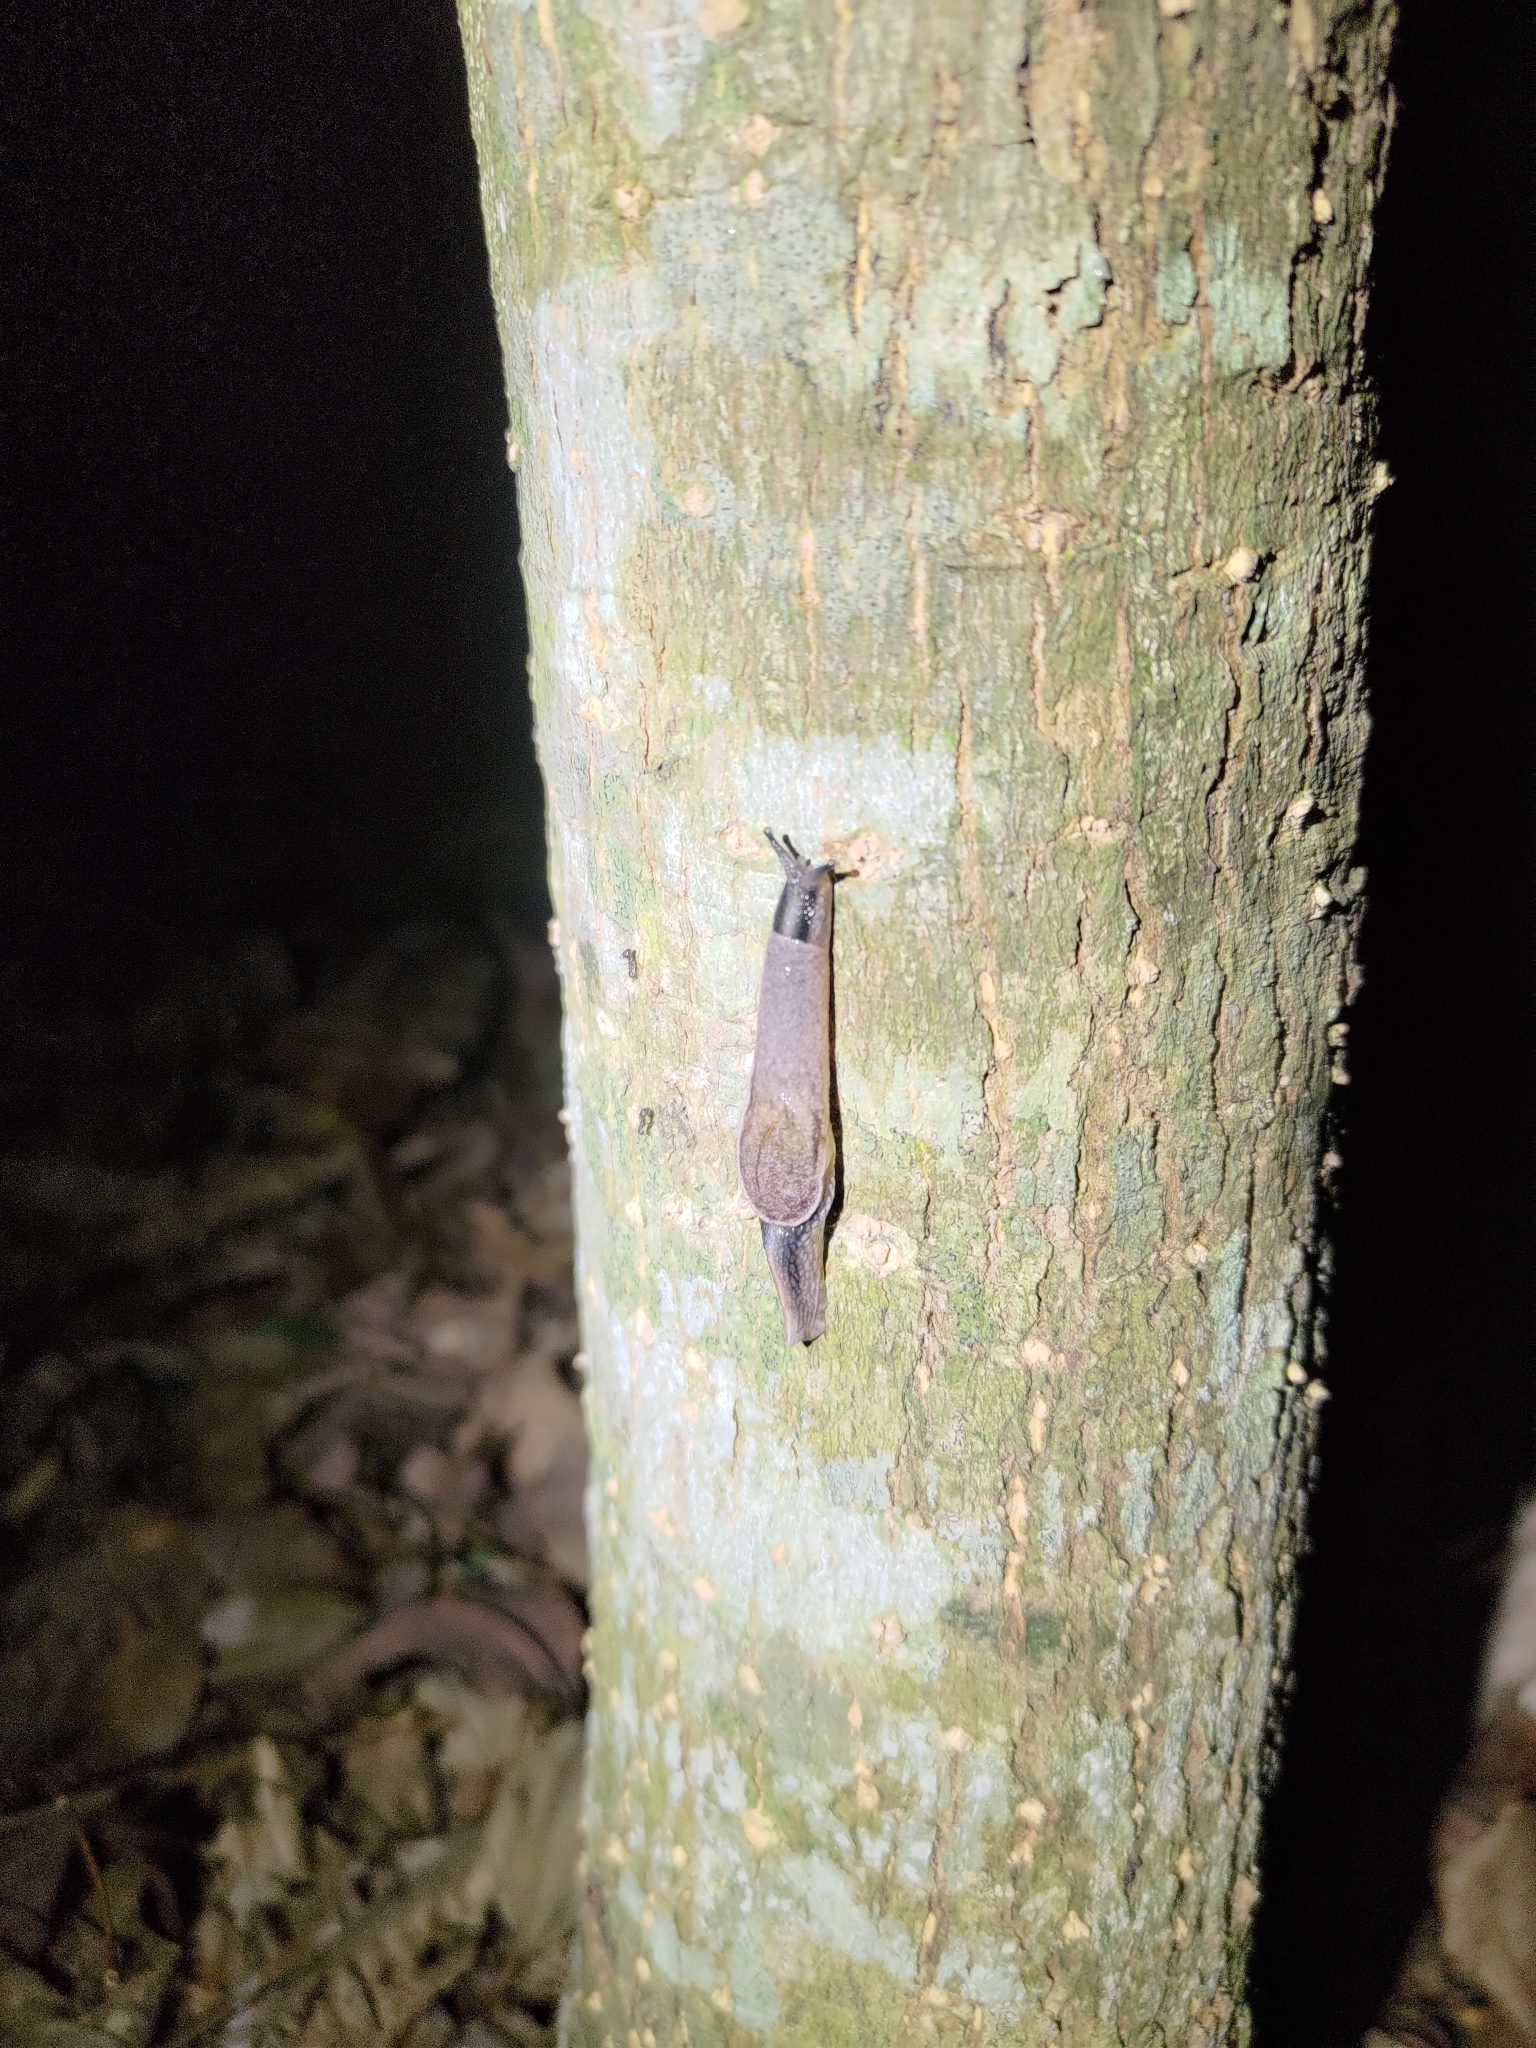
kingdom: Animalia
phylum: Mollusca
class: Gastropoda
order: Stylommatophora
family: Ariophantidae
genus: Parmarion
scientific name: Parmarion martensi
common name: Semi-slug
